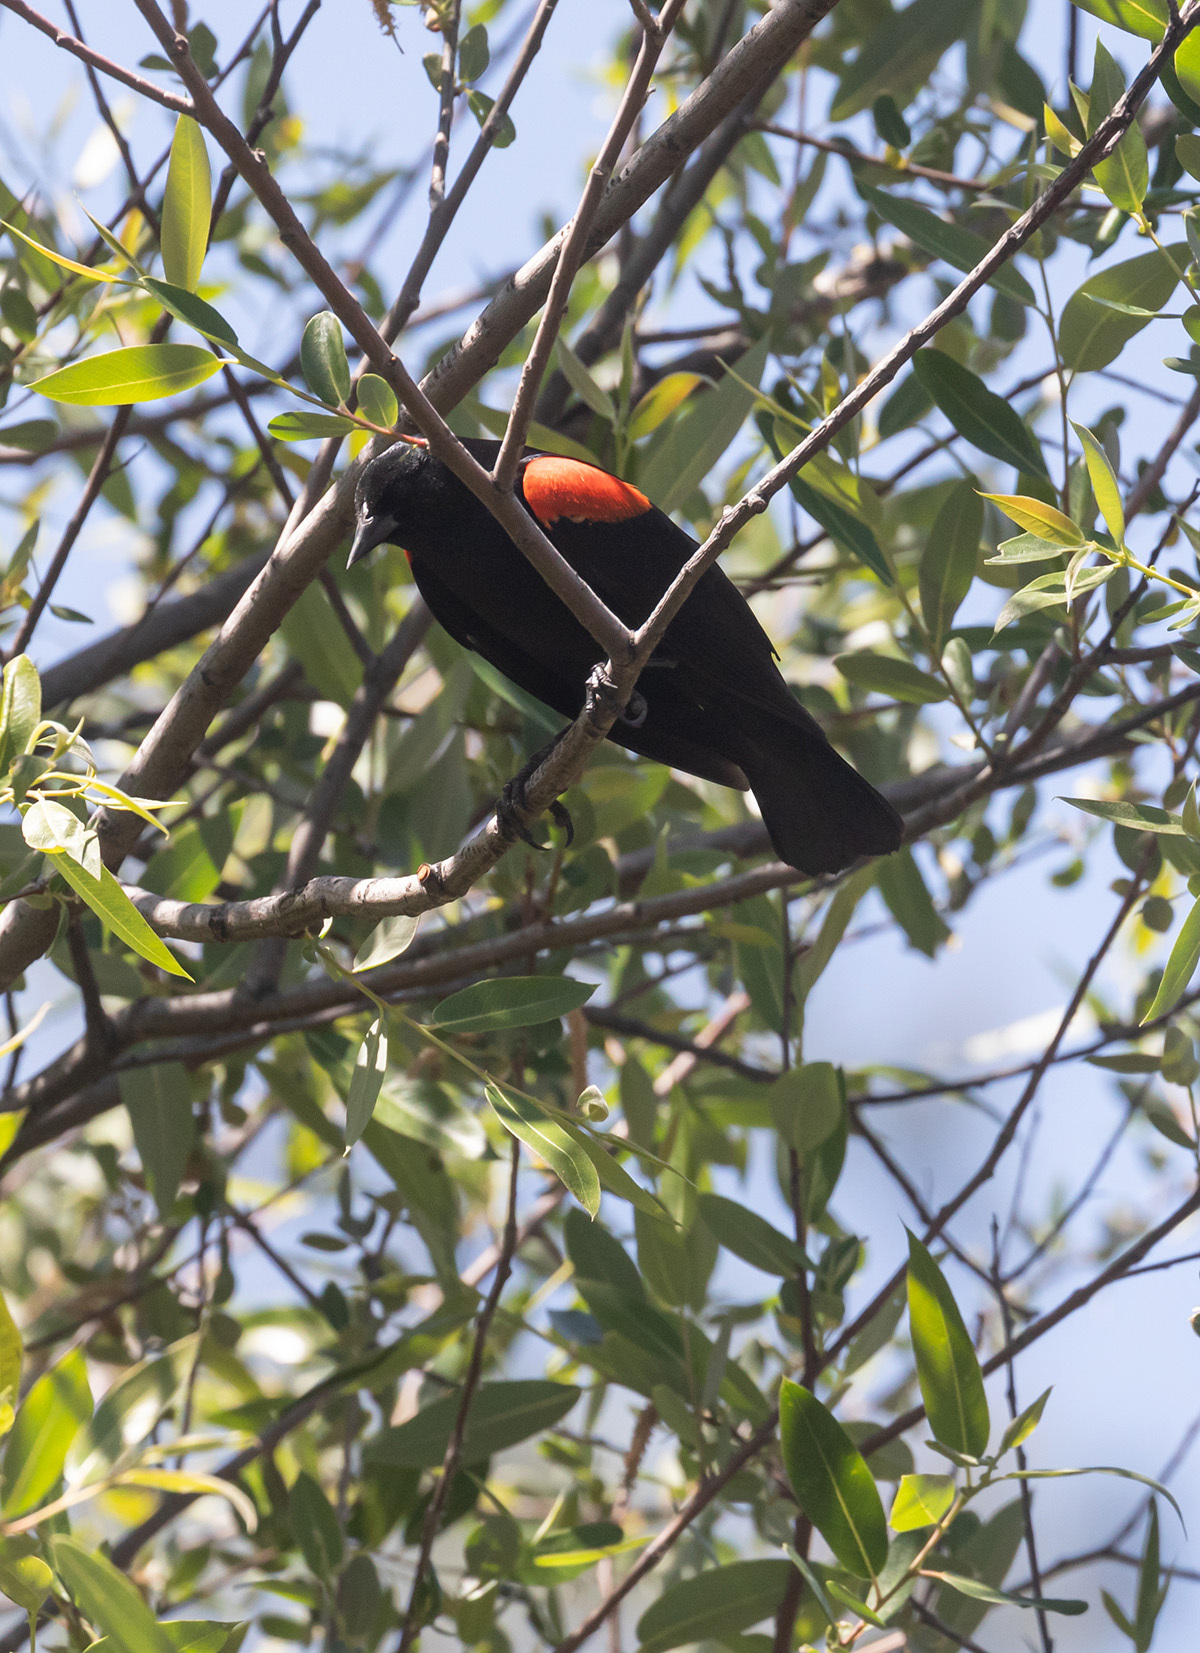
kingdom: Animalia
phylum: Chordata
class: Aves
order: Passeriformes
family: Icteridae
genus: Agelaius
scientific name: Agelaius phoeniceus
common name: Red-winged blackbird
